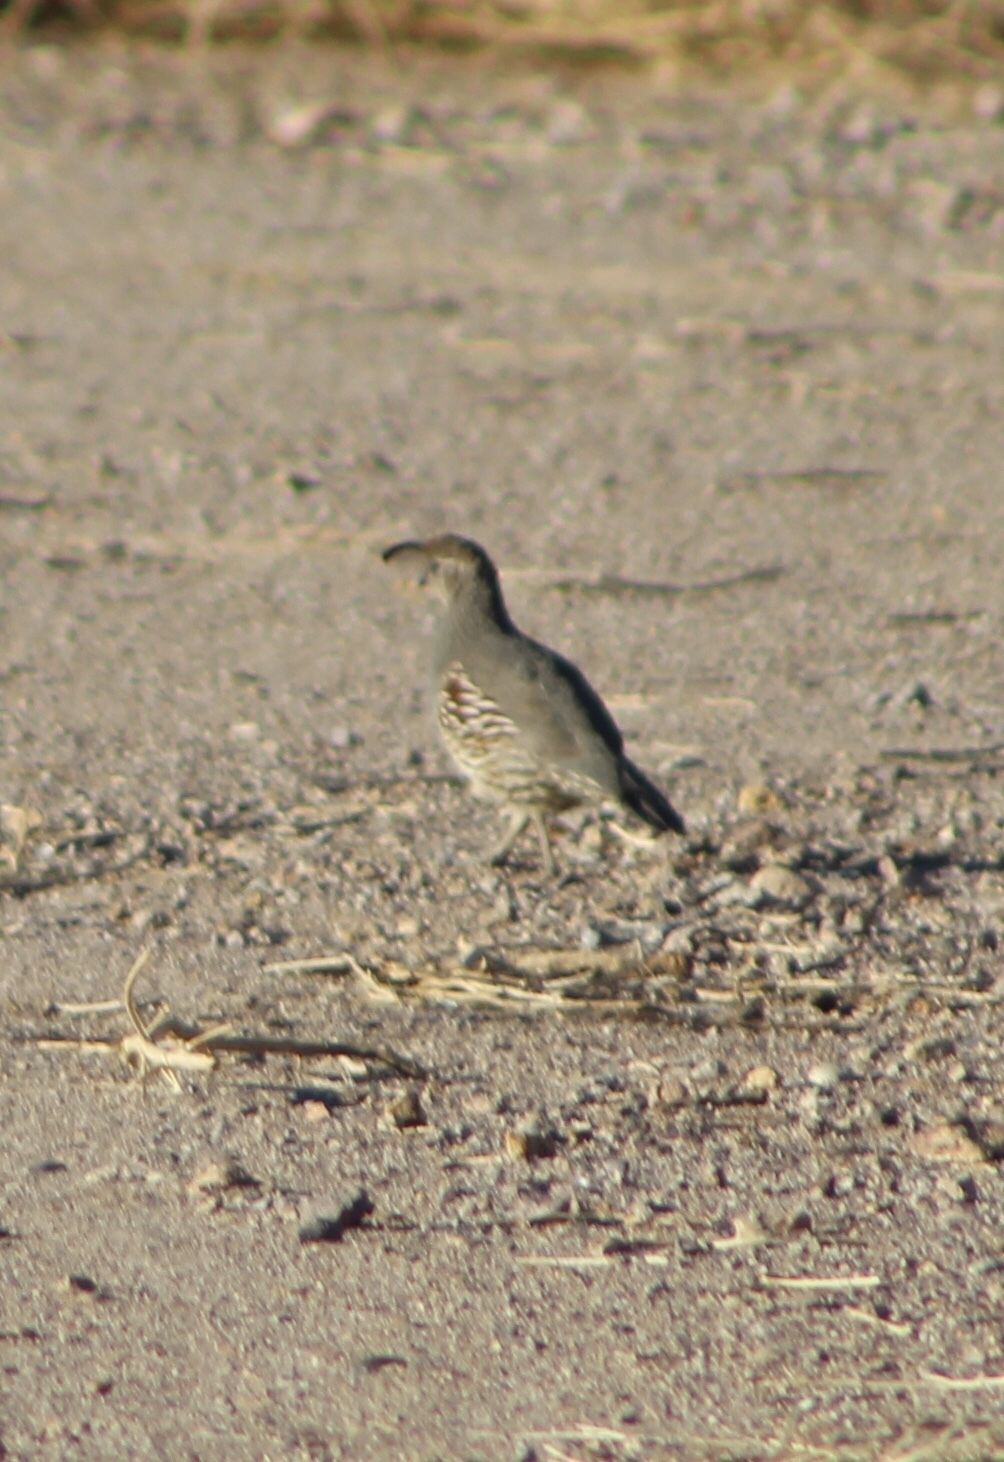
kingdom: Animalia
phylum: Chordata
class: Aves
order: Galliformes
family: Odontophoridae
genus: Callipepla
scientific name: Callipepla gambelii
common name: Gambel's quail
